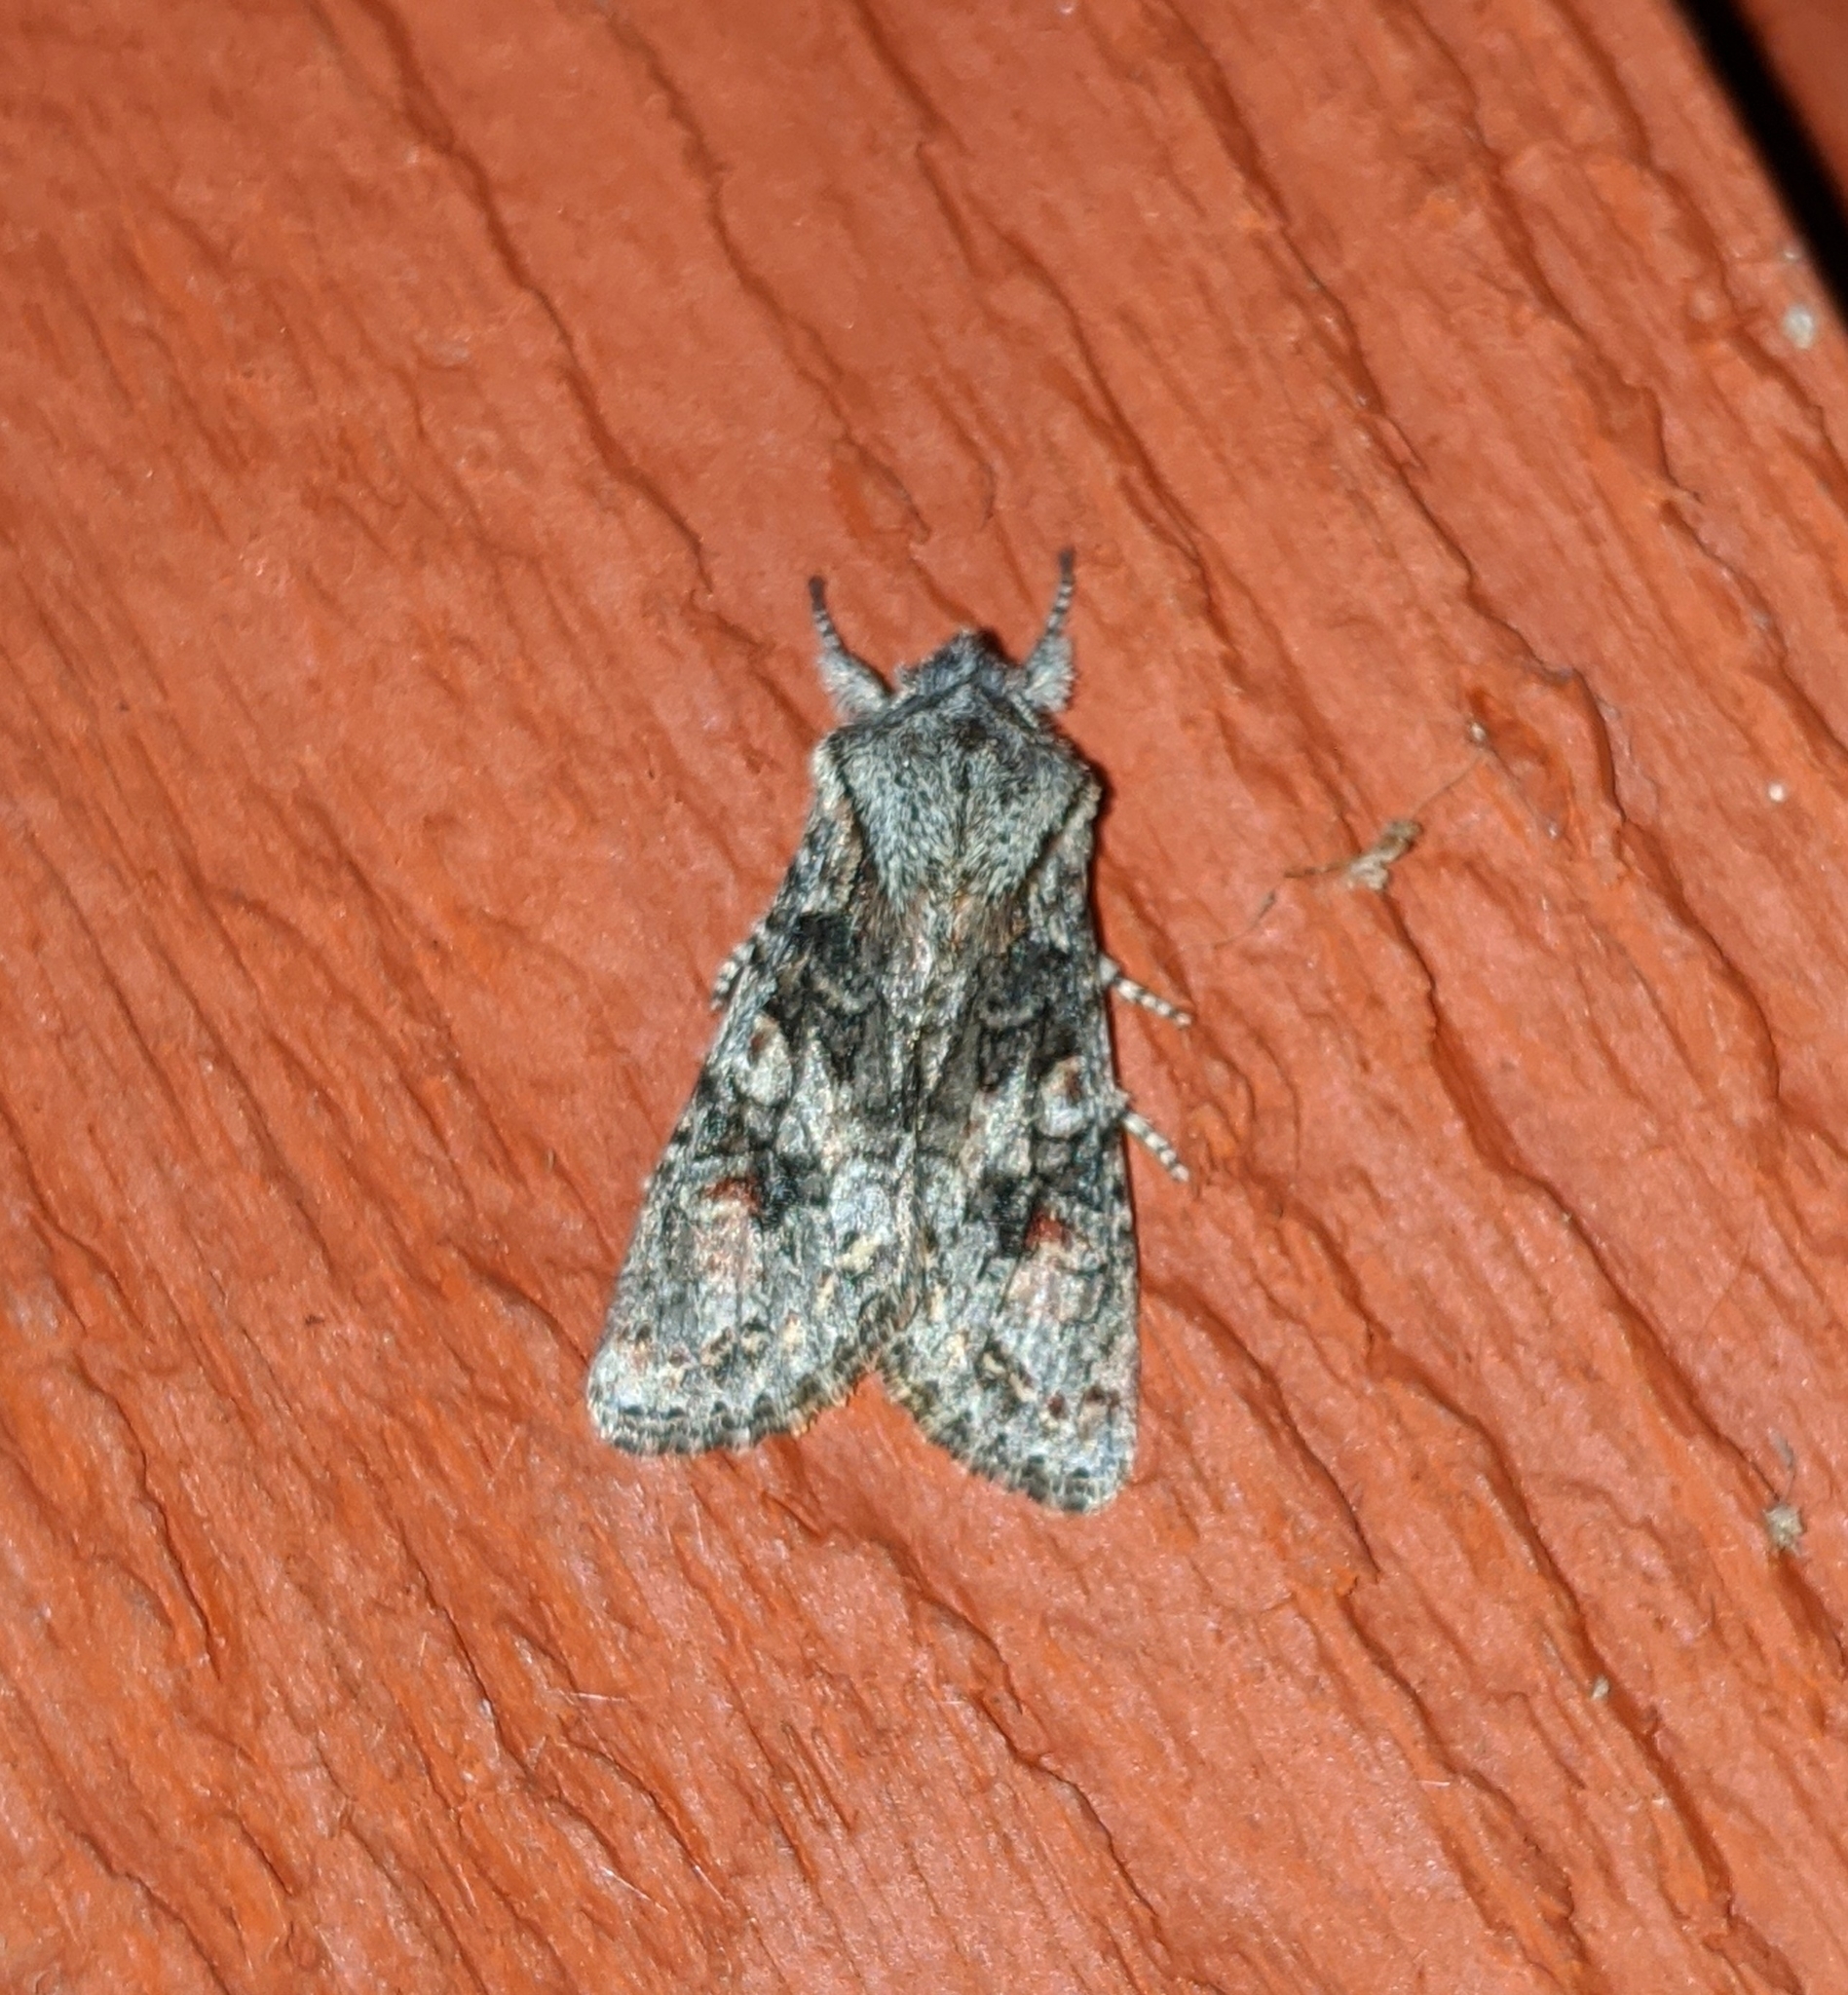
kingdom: Animalia
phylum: Arthropoda
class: Insecta
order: Lepidoptera
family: Noctuidae
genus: Egira
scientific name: Egira hiemalis
